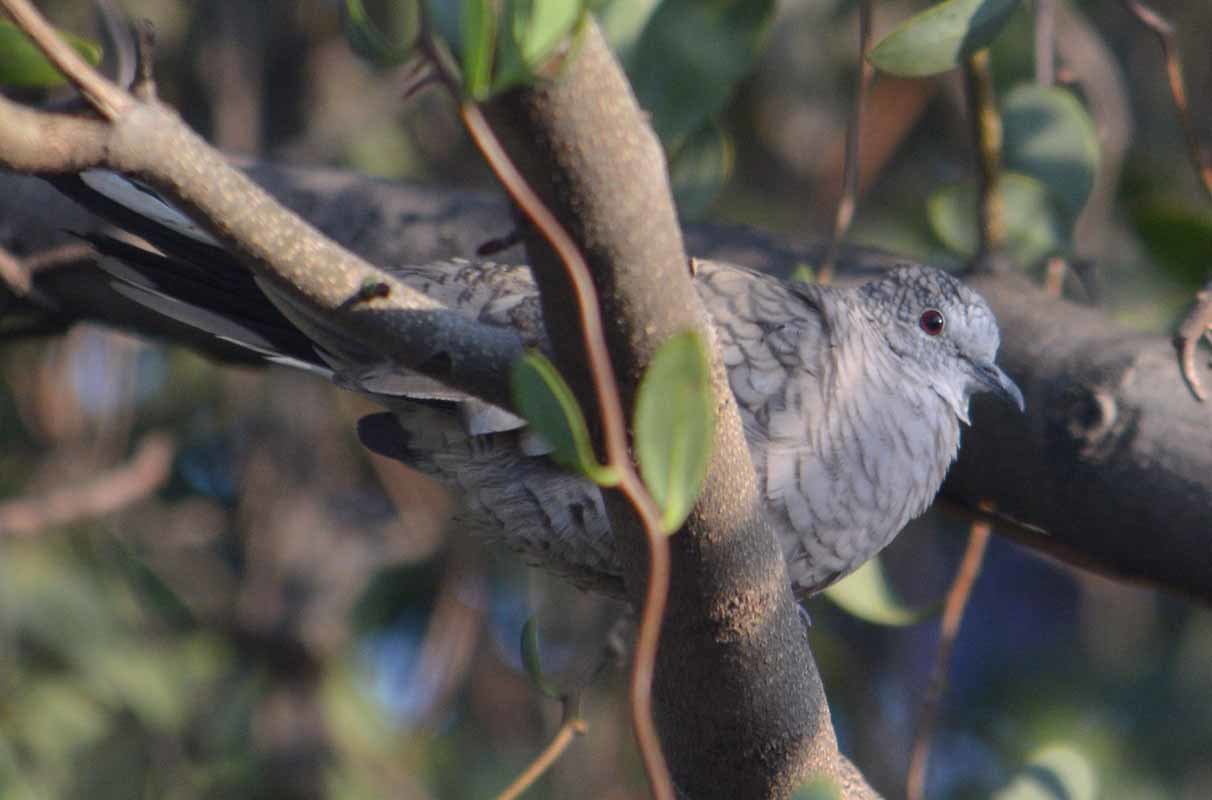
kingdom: Animalia
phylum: Chordata
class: Aves
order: Columbiformes
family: Columbidae
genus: Columbina
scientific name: Columbina inca
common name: Inca dove
